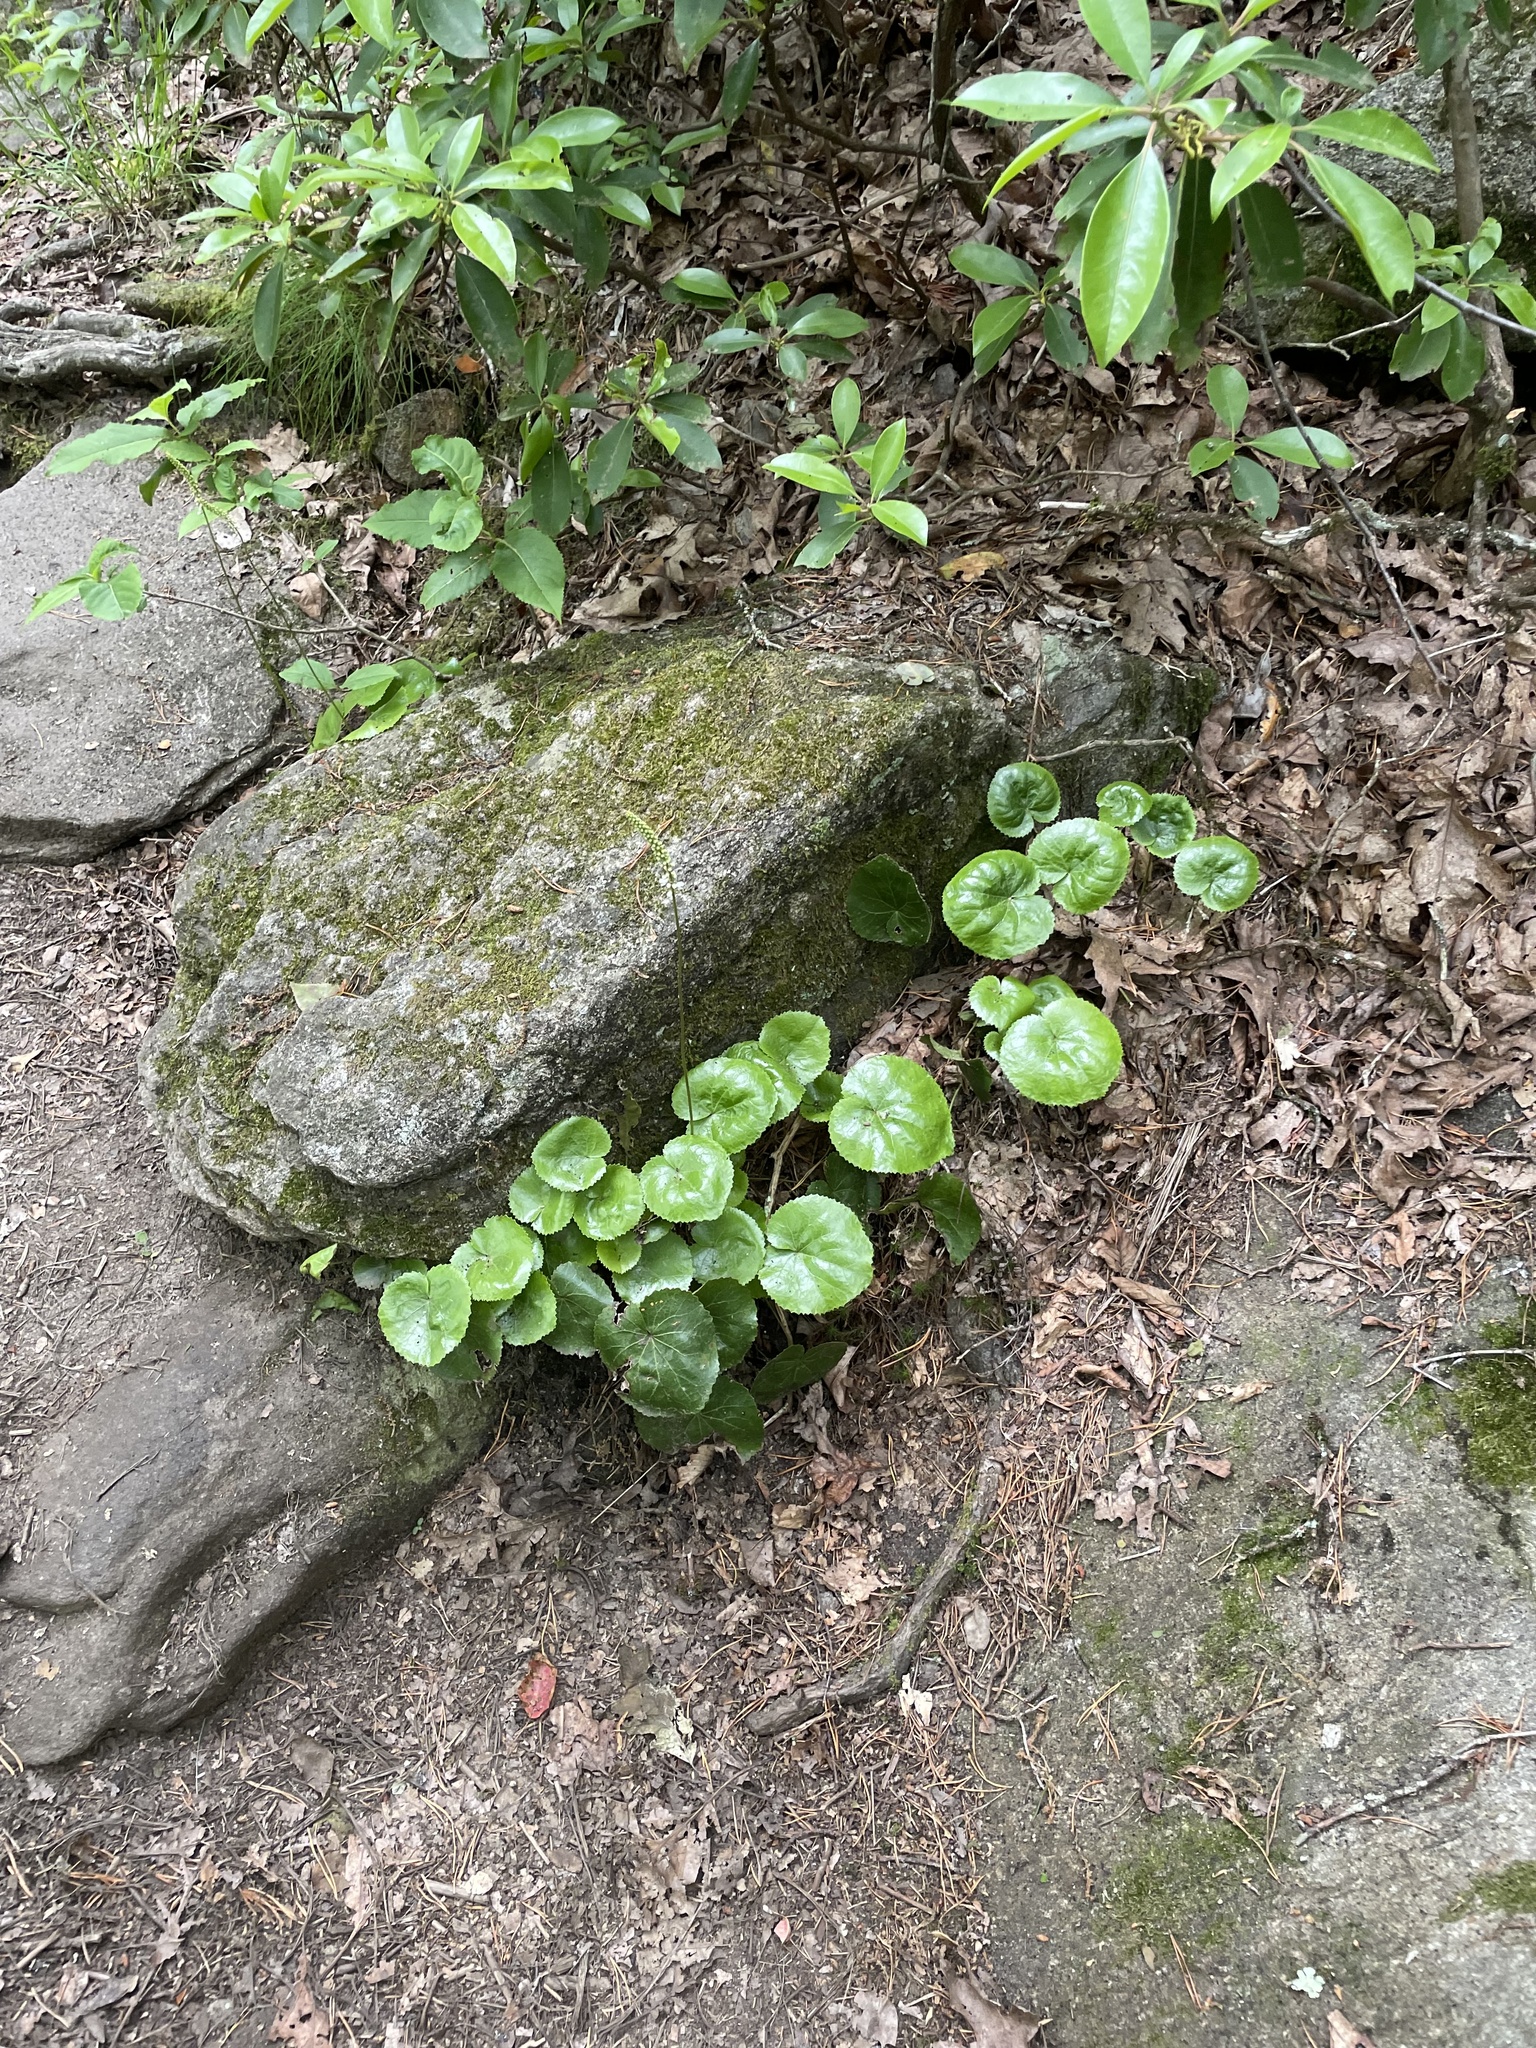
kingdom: Plantae
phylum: Tracheophyta
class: Magnoliopsida
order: Ericales
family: Diapensiaceae
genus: Galax
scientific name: Galax urceolata
